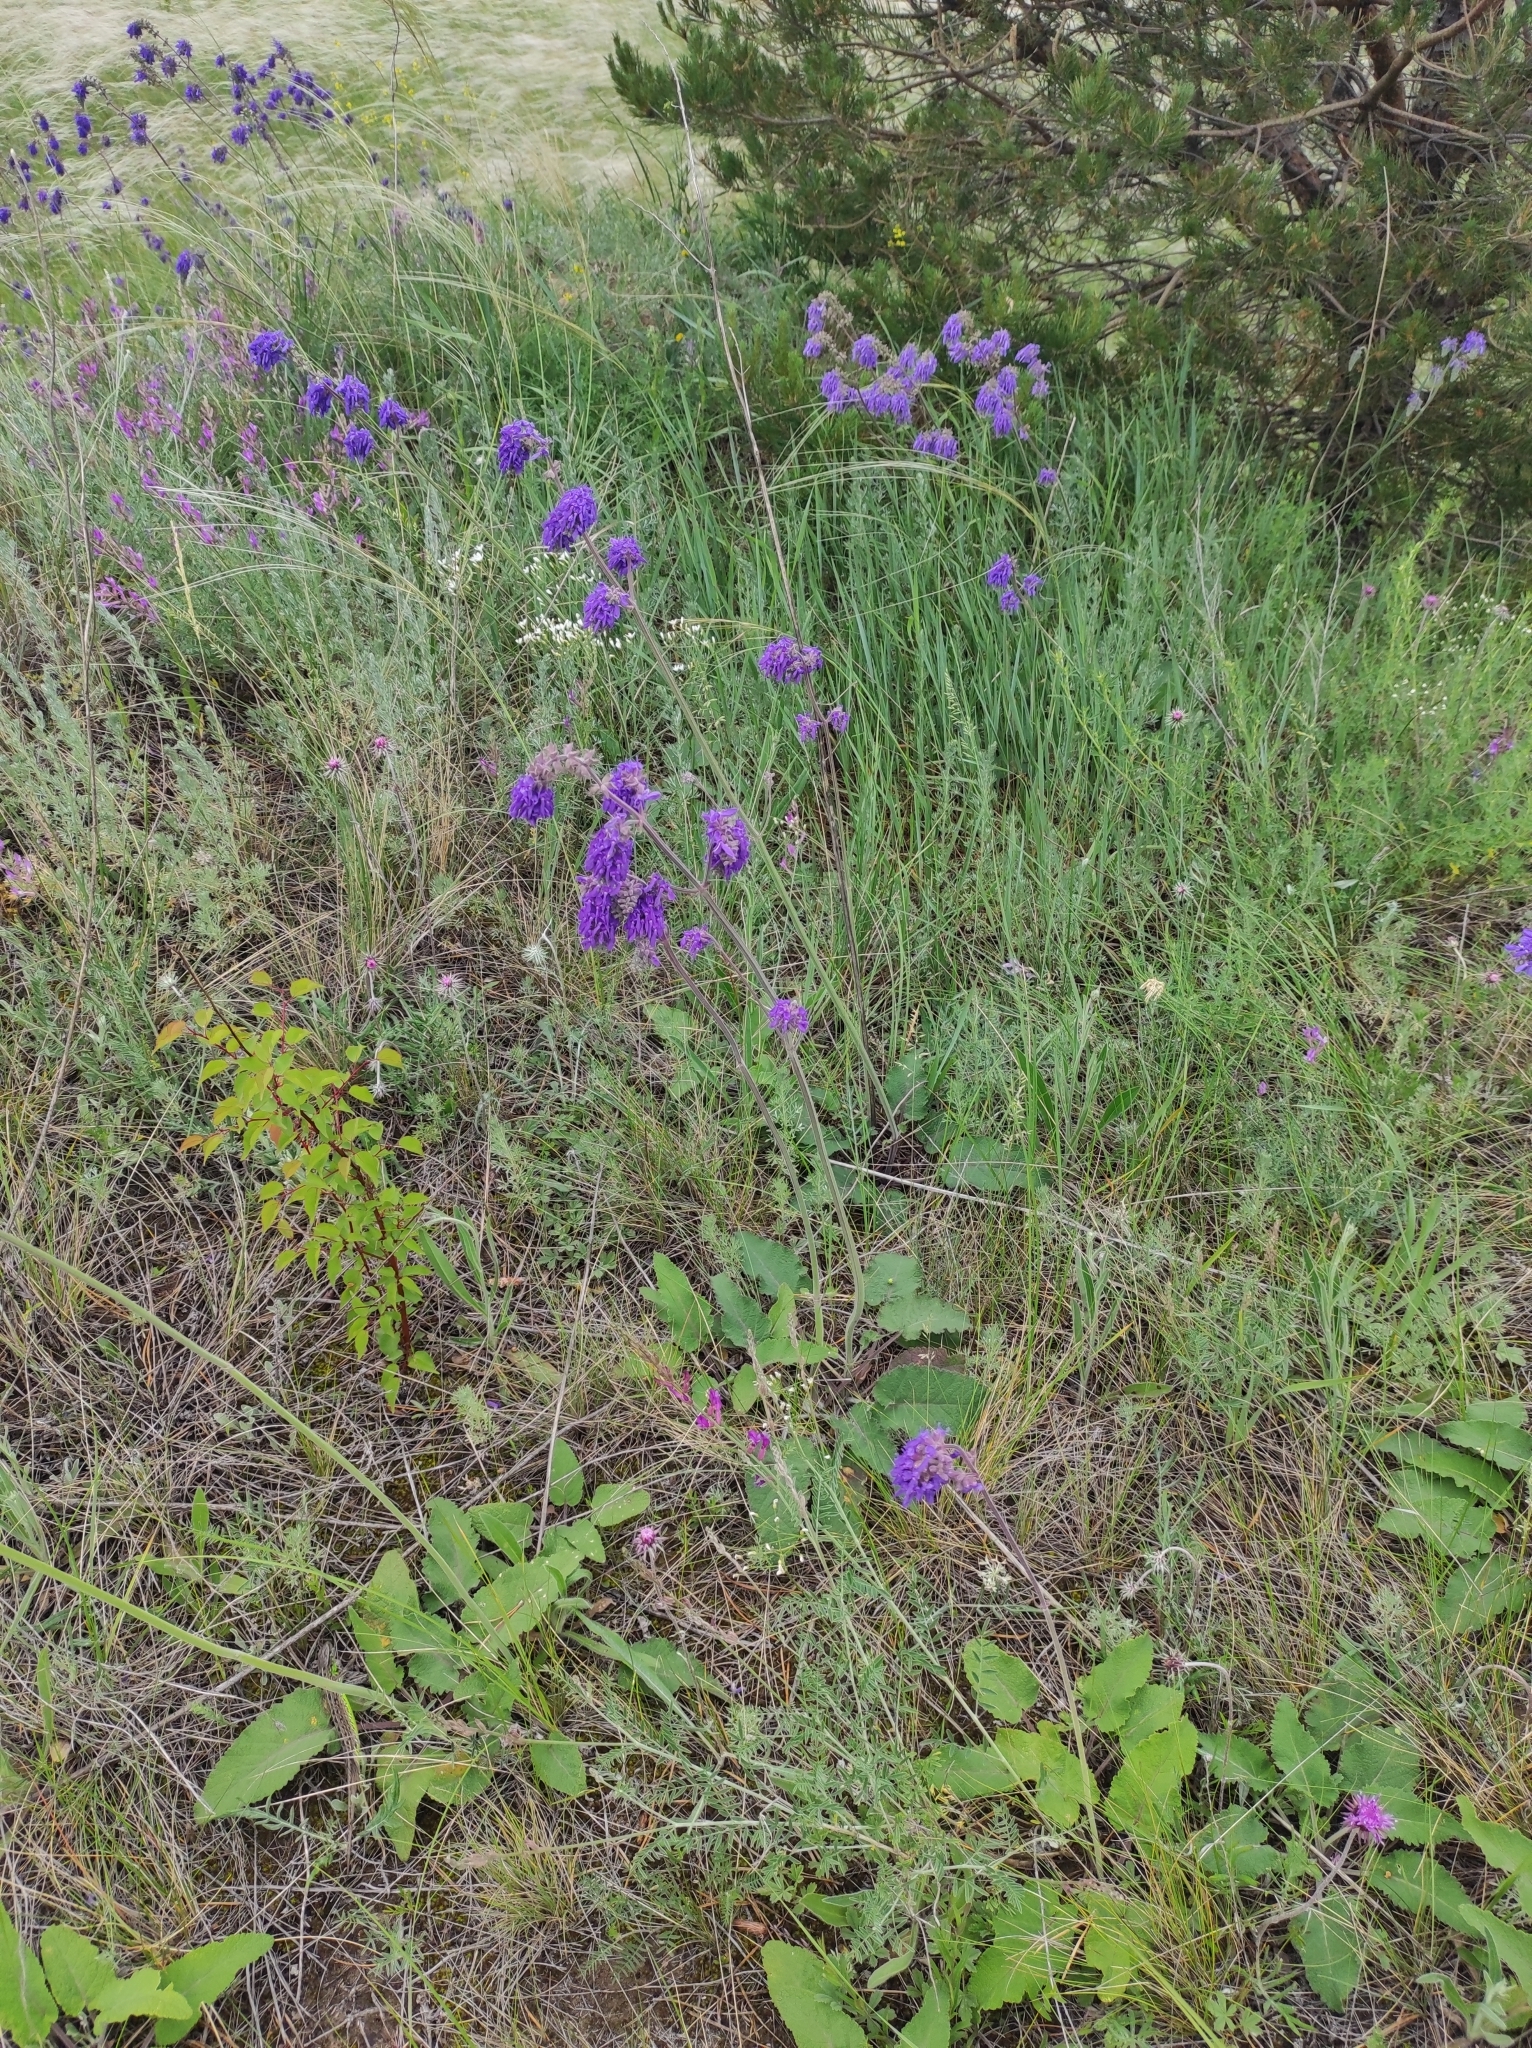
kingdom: Plantae
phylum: Tracheophyta
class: Magnoliopsida
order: Lamiales
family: Lamiaceae
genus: Salvia
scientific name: Salvia nutans
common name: Nodding sage
